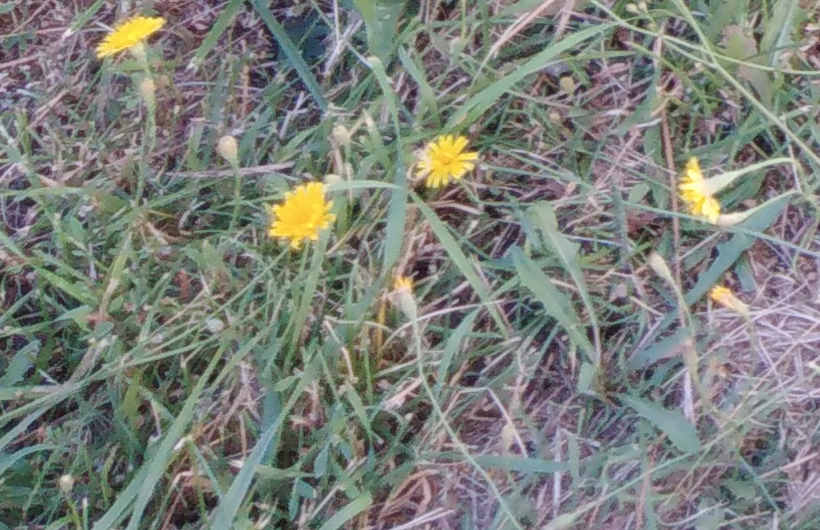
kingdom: Plantae
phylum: Tracheophyta
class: Magnoliopsida
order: Asterales
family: Asteraceae
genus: Scorzoneroides
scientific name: Scorzoneroides autumnalis
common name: Autumn hawkbit
